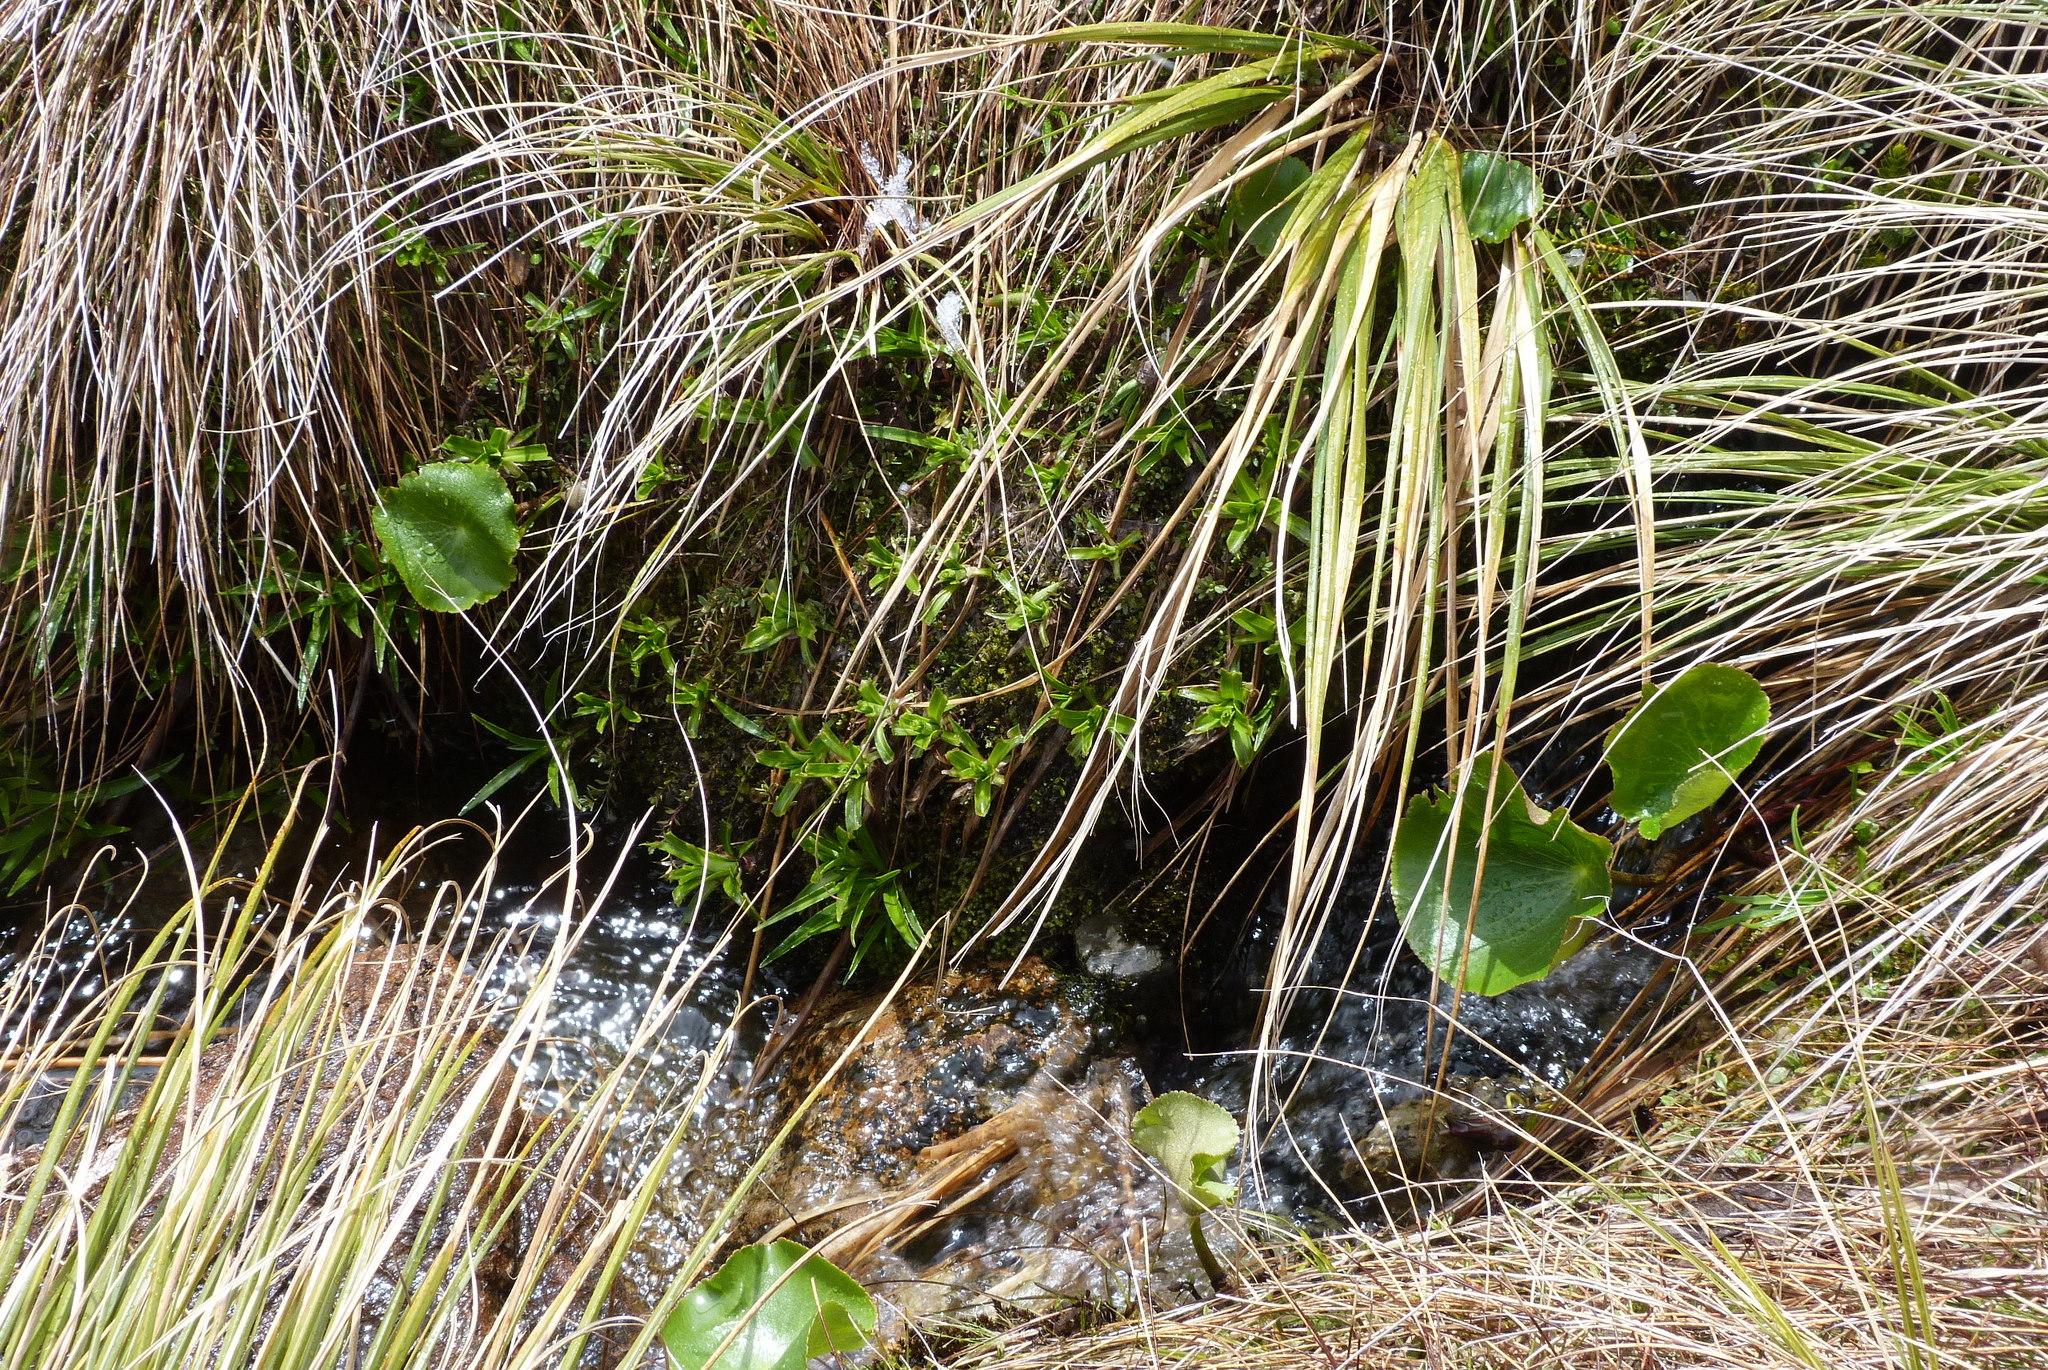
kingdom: Plantae
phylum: Tracheophyta
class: Magnoliopsida
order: Asterales
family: Asteraceae
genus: Dolichoglottis
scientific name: Dolichoglottis lyallii
